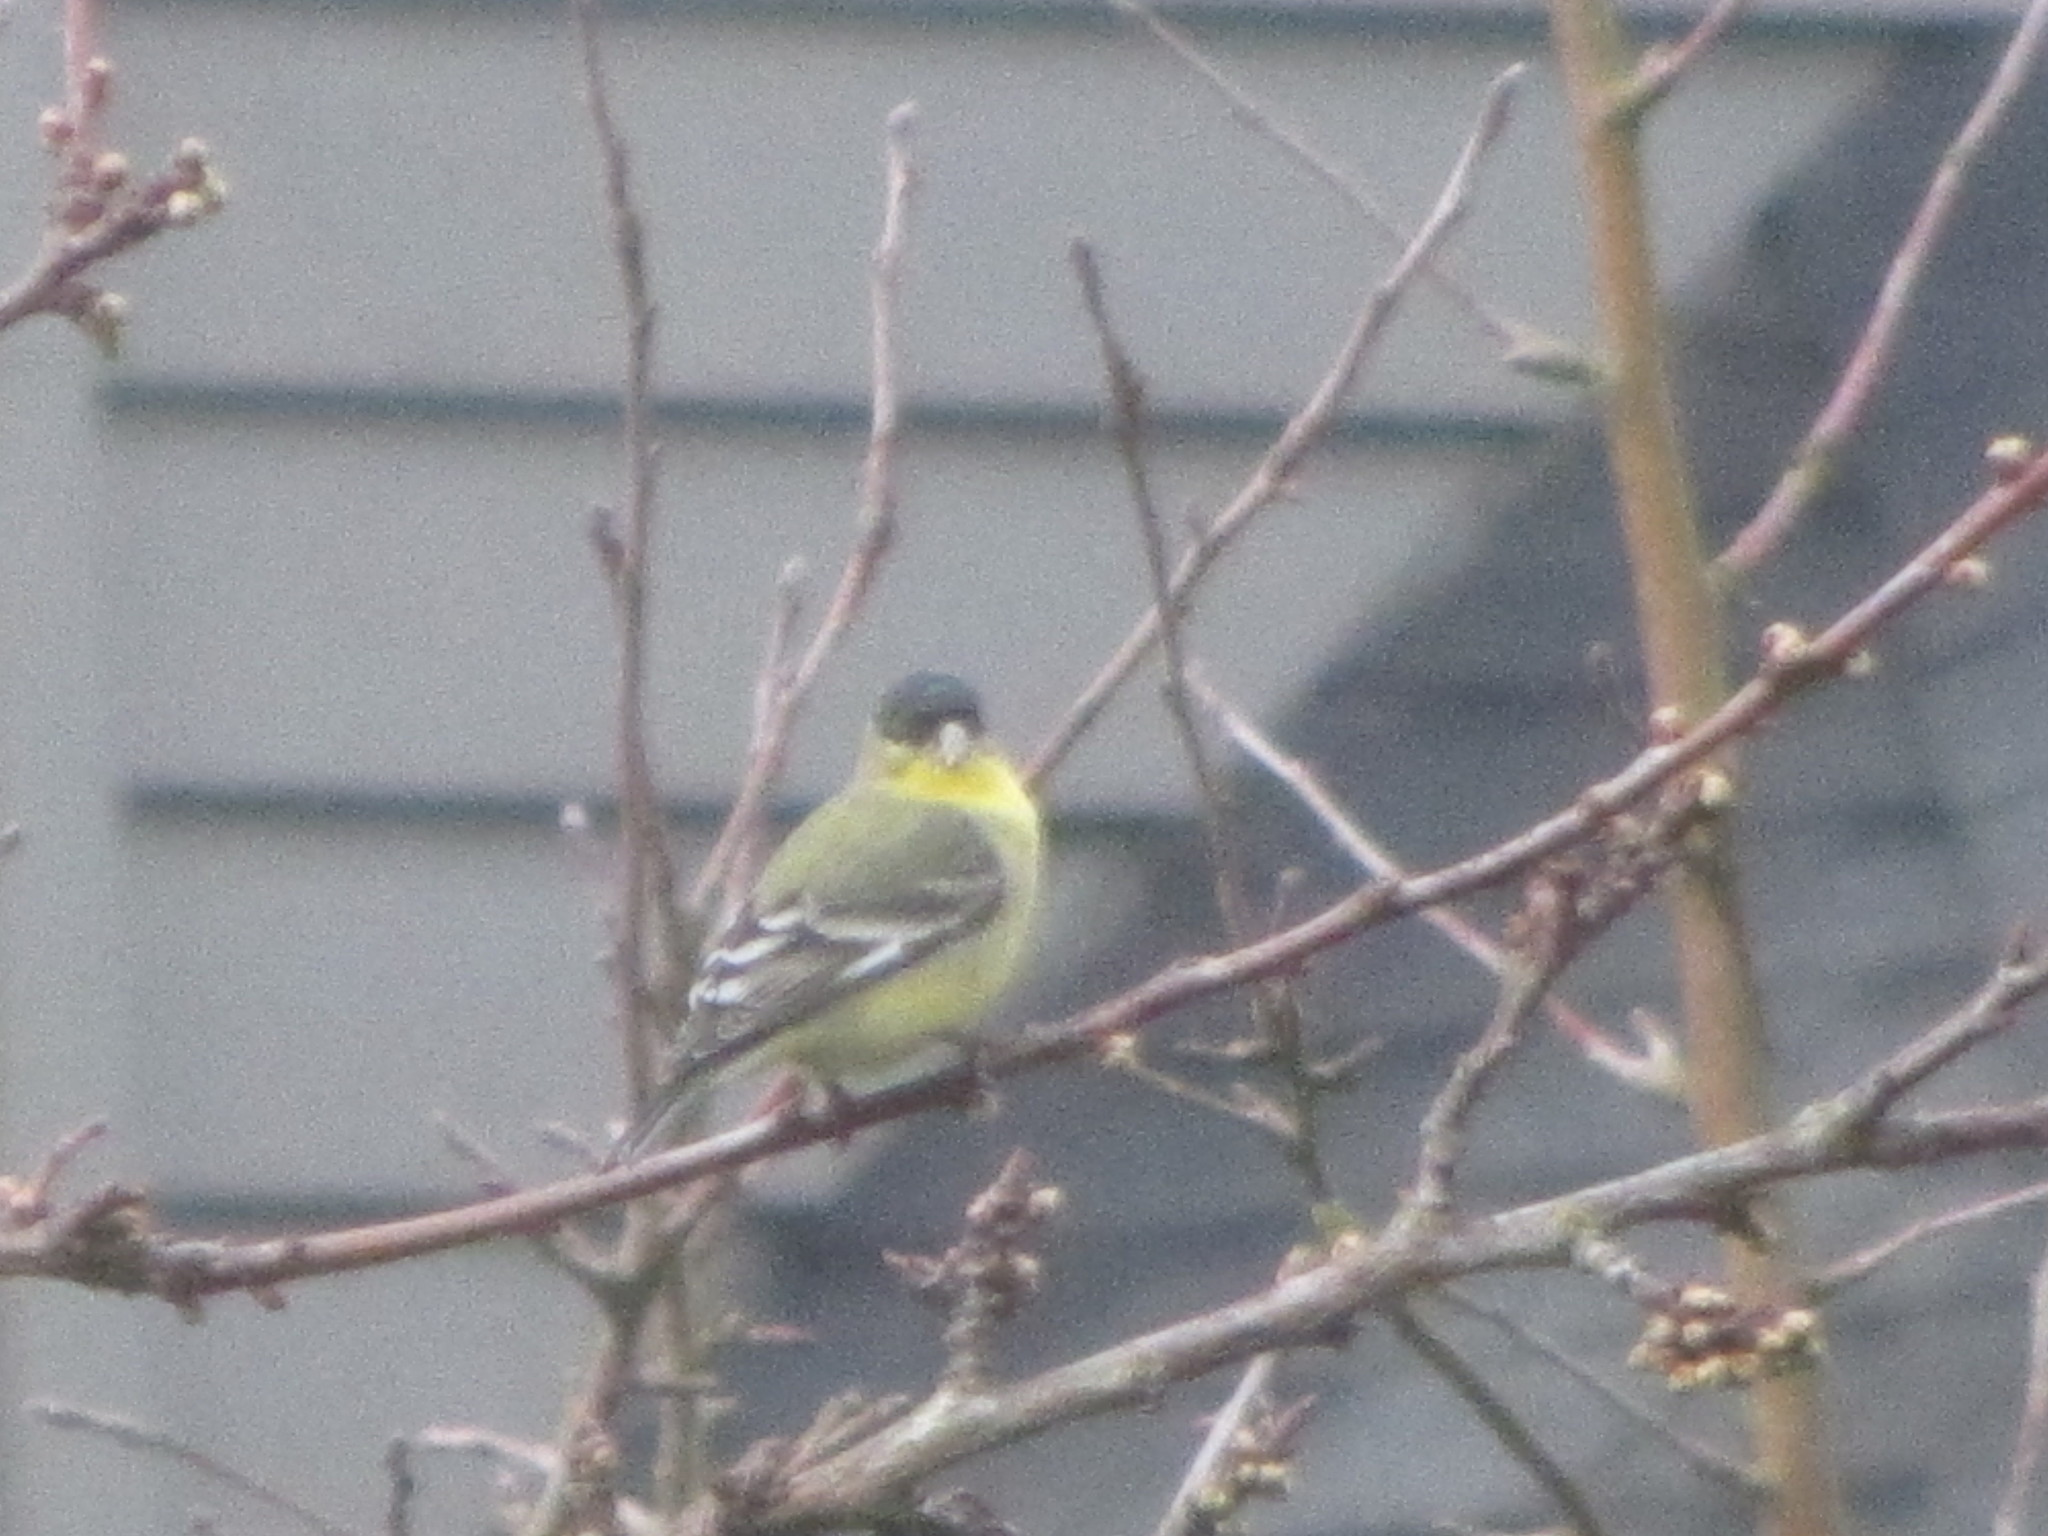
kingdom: Animalia
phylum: Chordata
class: Aves
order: Passeriformes
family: Fringillidae
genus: Spinus
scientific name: Spinus psaltria
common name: Lesser goldfinch
